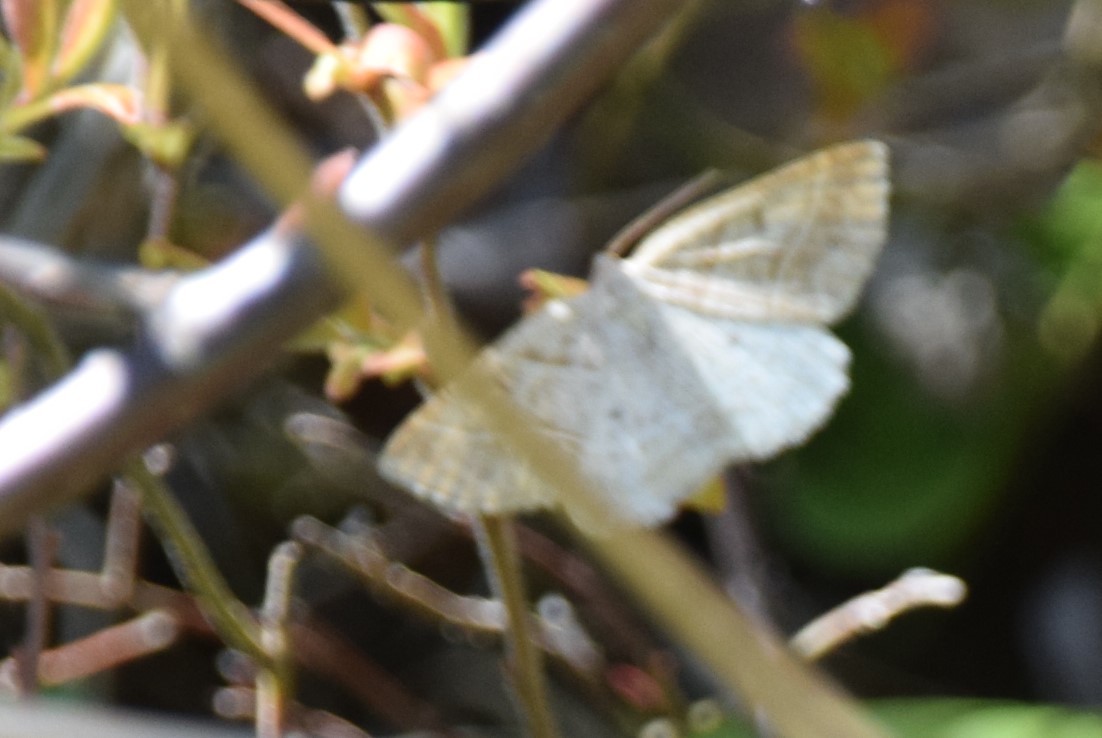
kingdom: Animalia
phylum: Arthropoda
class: Insecta
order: Lepidoptera
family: Pterophoridae
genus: Pterophorus
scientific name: Pterophorus Petrophora subaequaria
